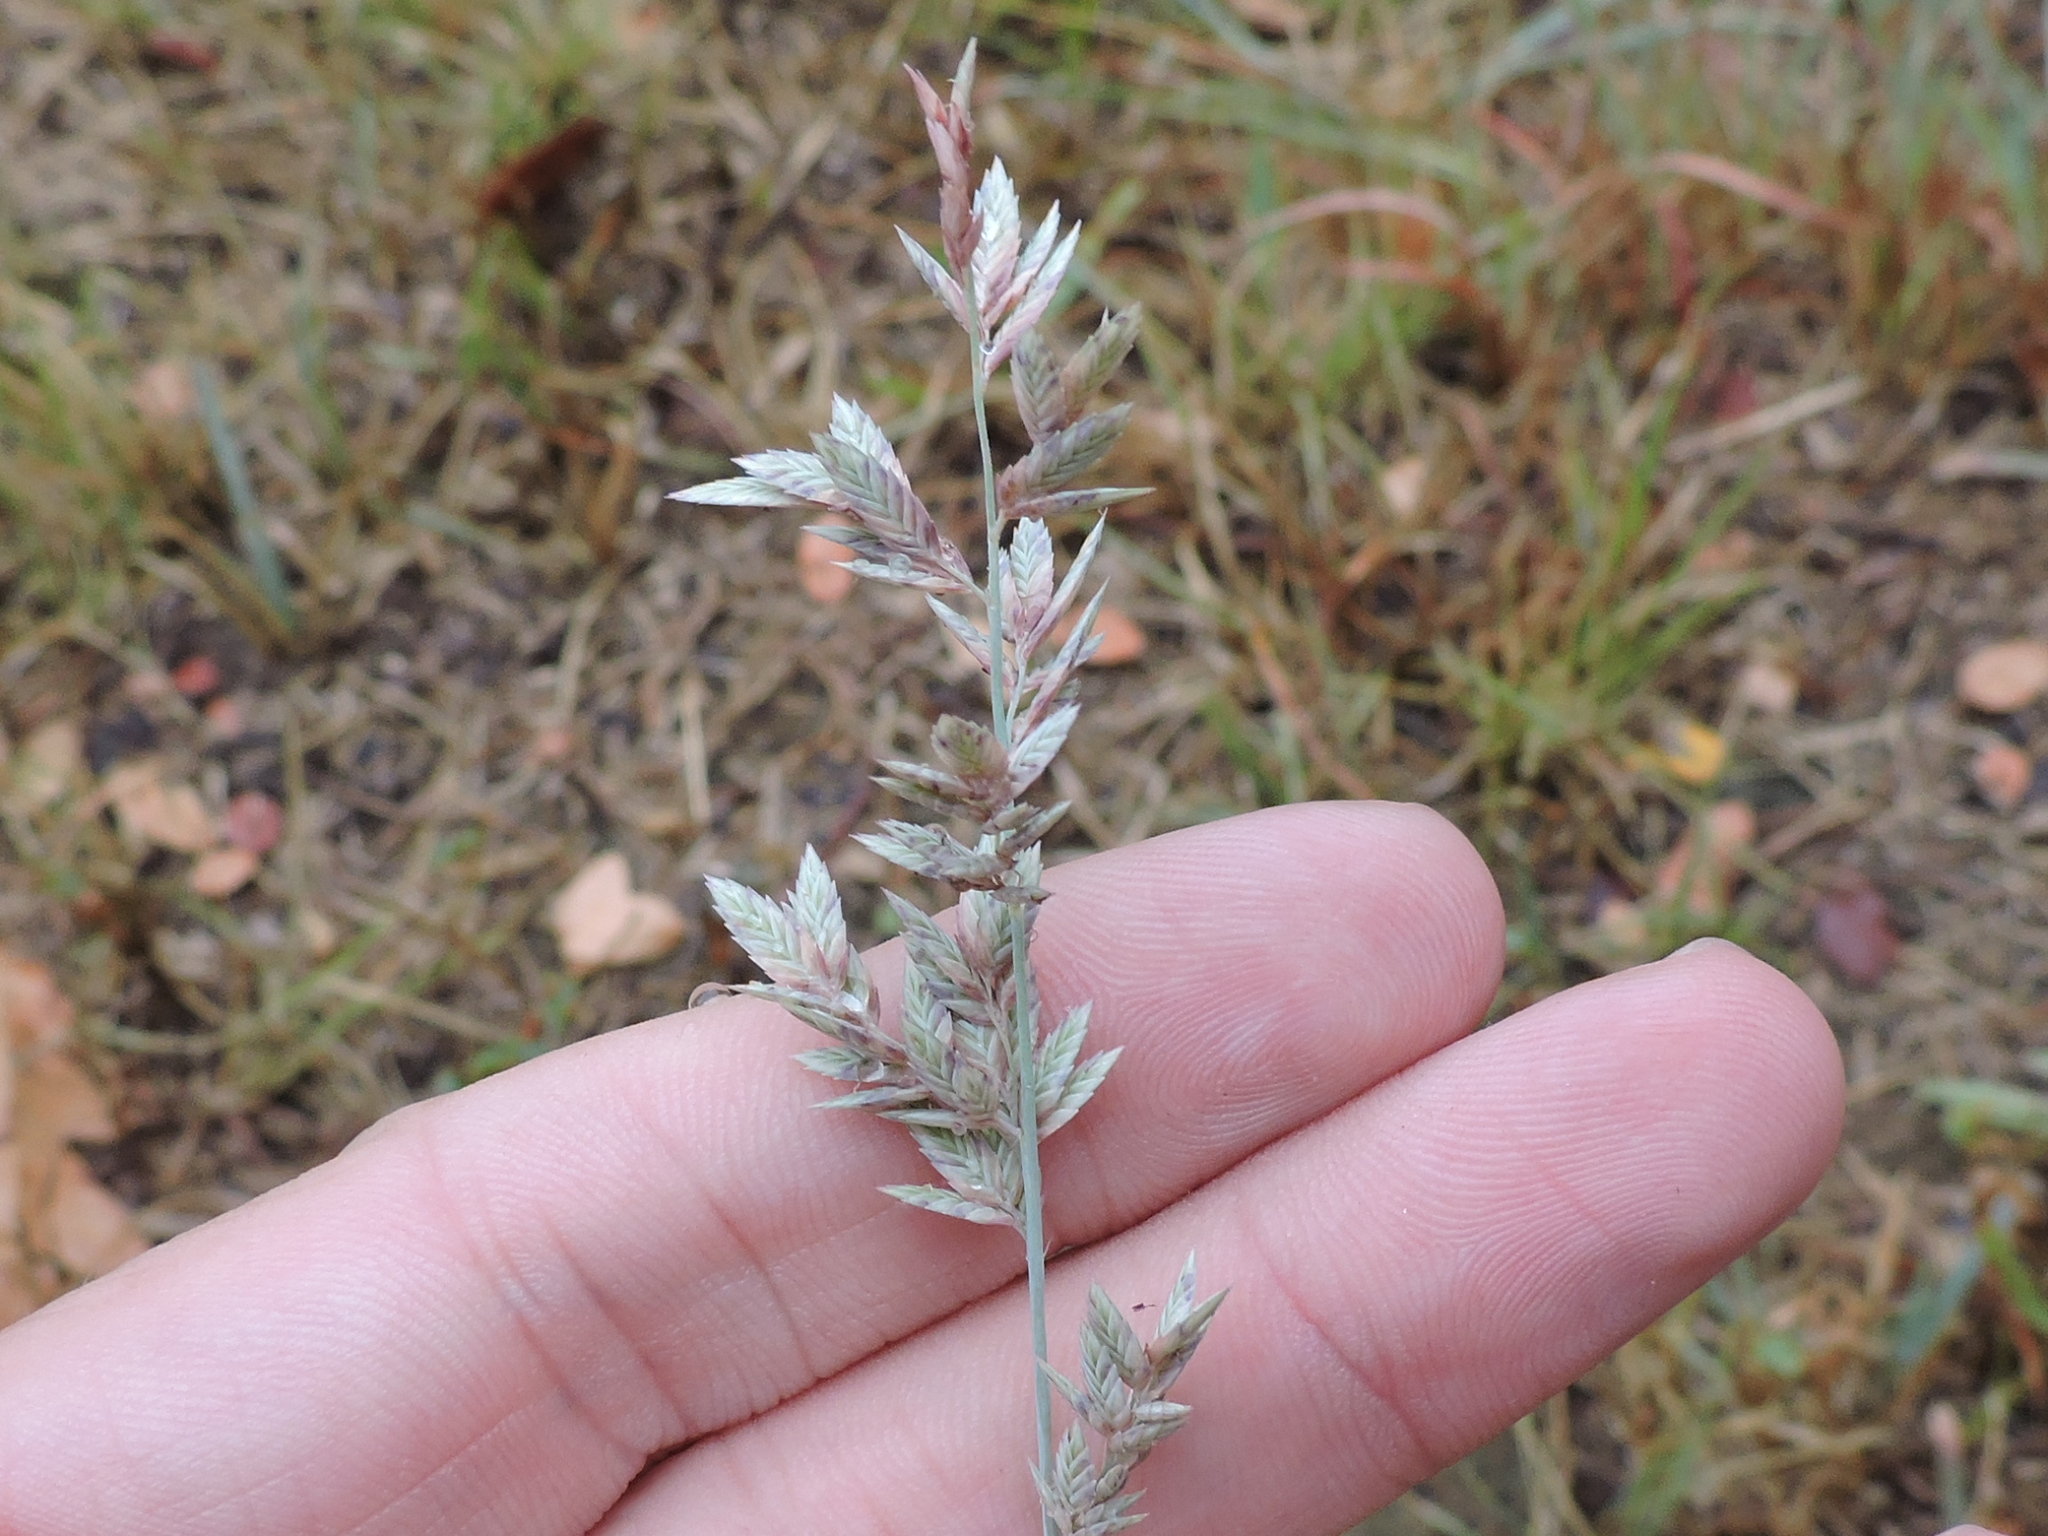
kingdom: Plantae
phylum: Tracheophyta
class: Liliopsida
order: Poales
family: Poaceae
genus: Eragrostis
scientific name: Eragrostis secundiflora
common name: Red love grass
